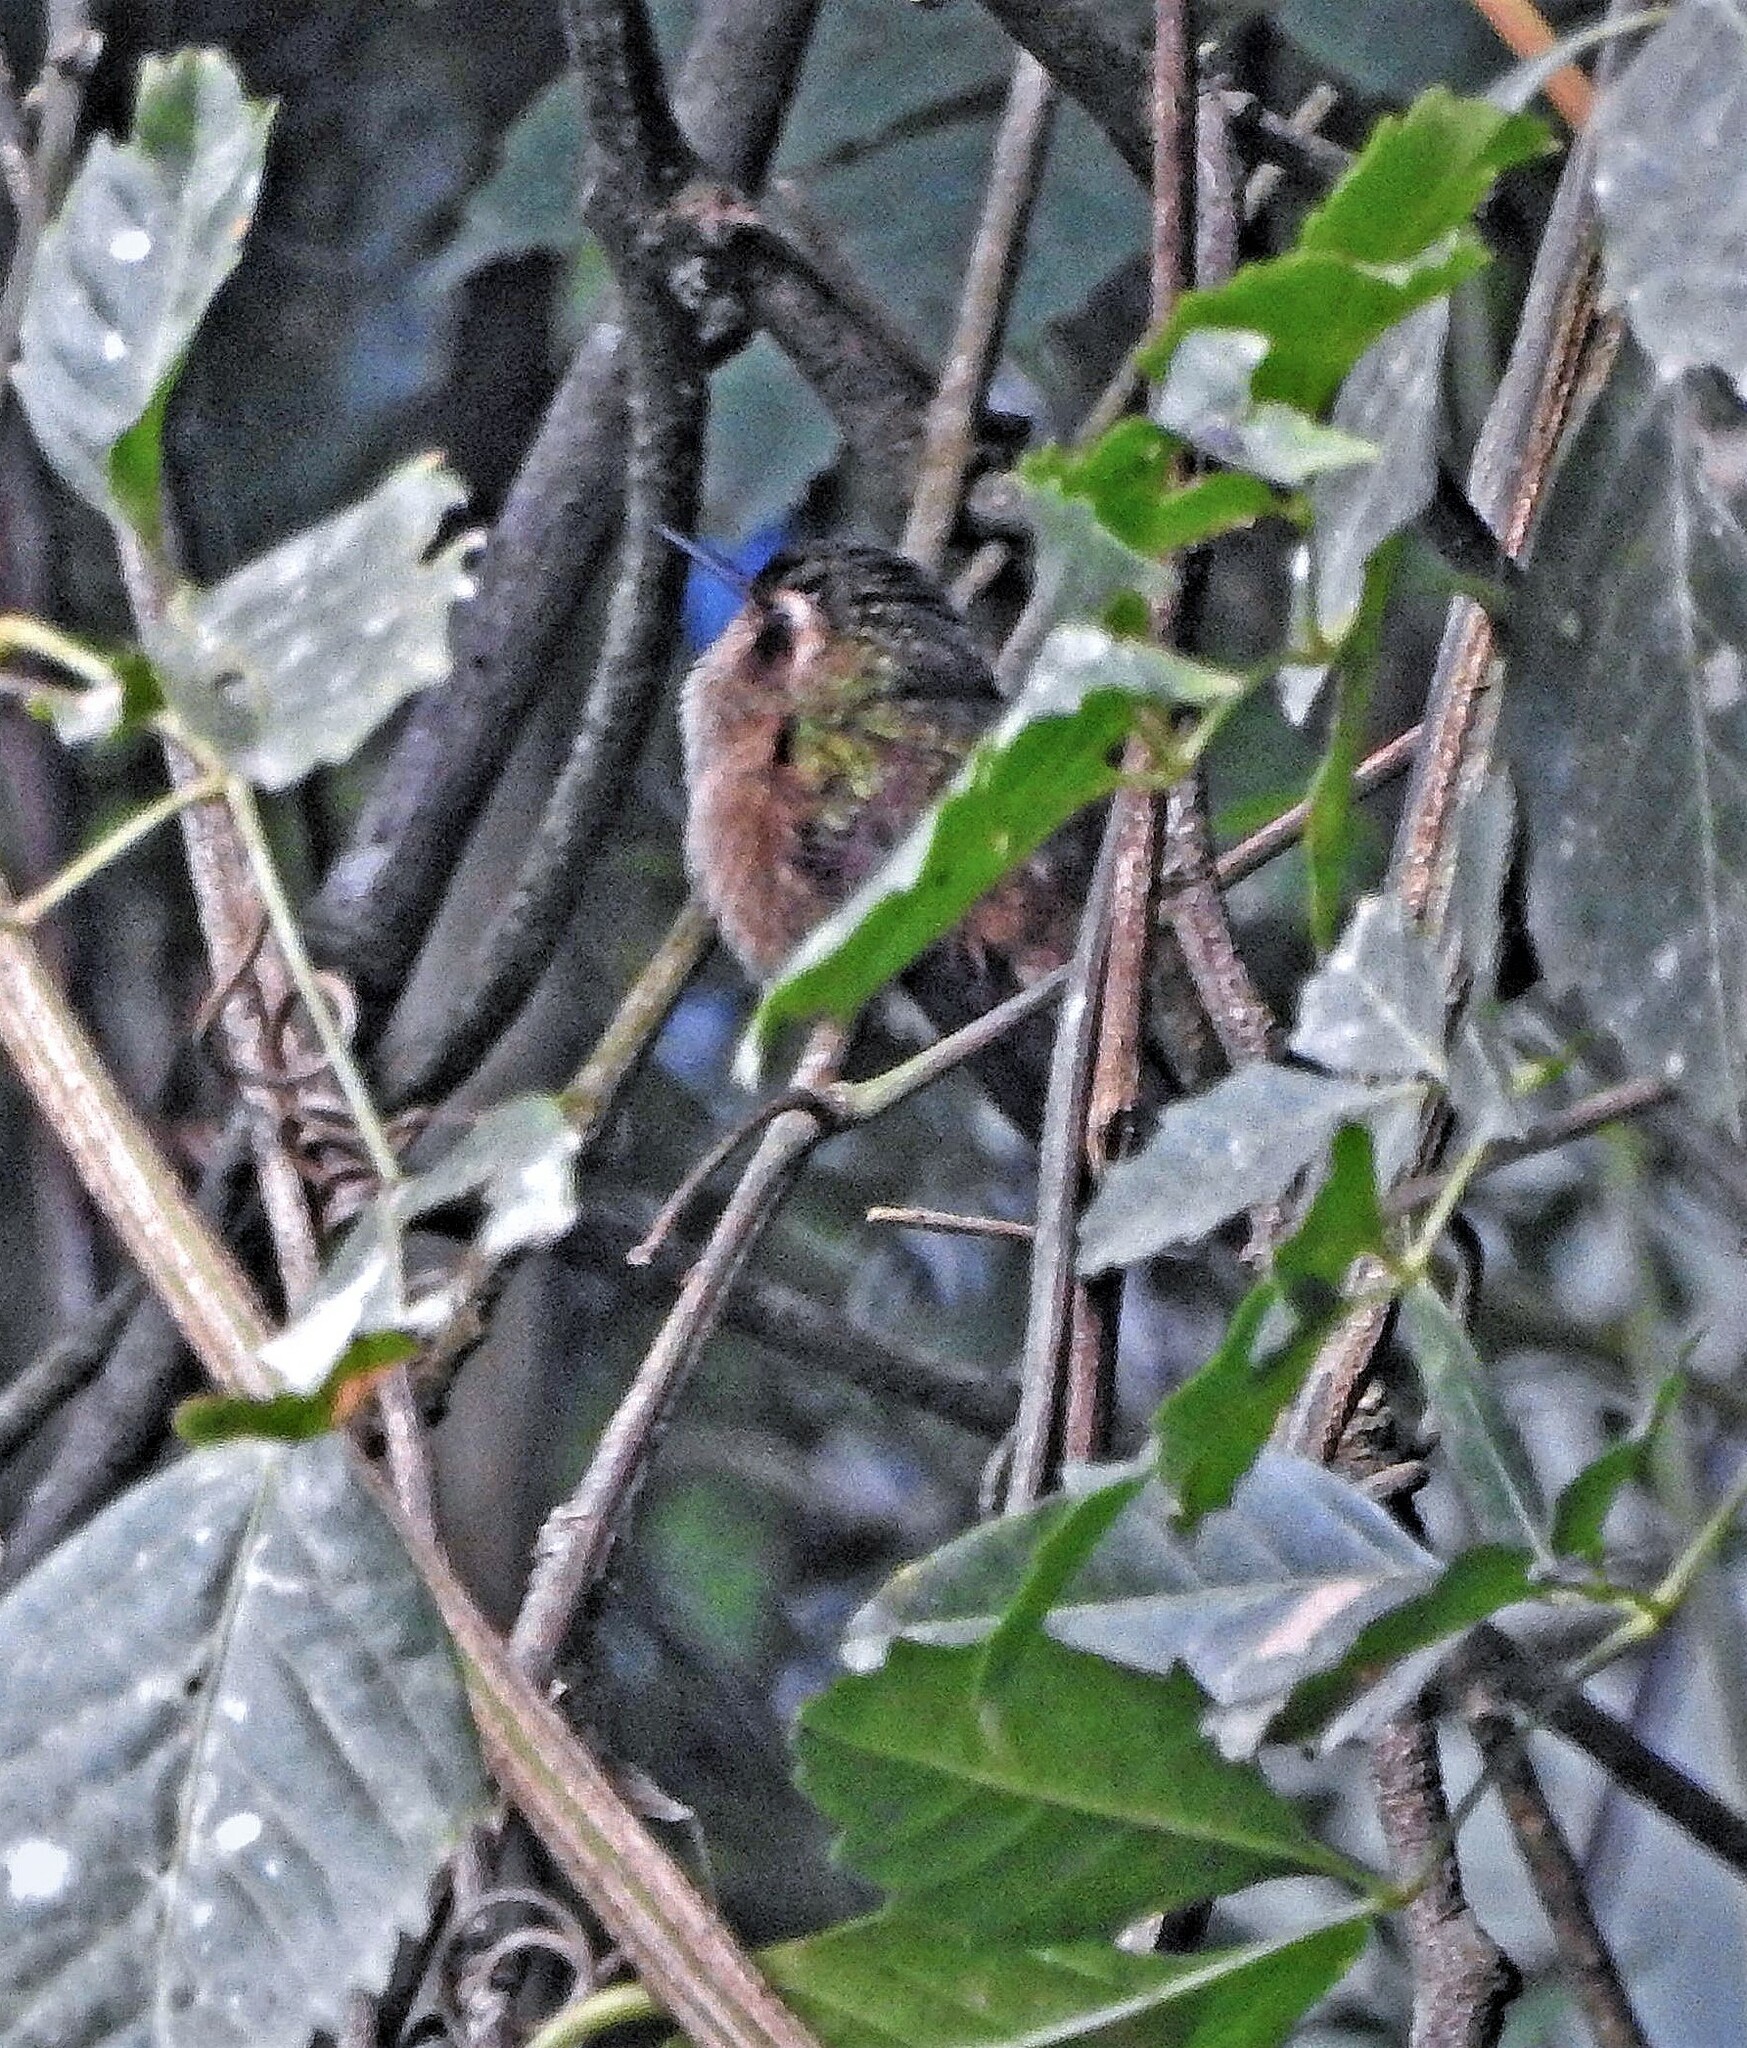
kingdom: Animalia
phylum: Chordata
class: Aves
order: Apodiformes
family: Trochilidae
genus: Adelomyia
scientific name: Adelomyia melanogenys
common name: Speckled hummingbird
